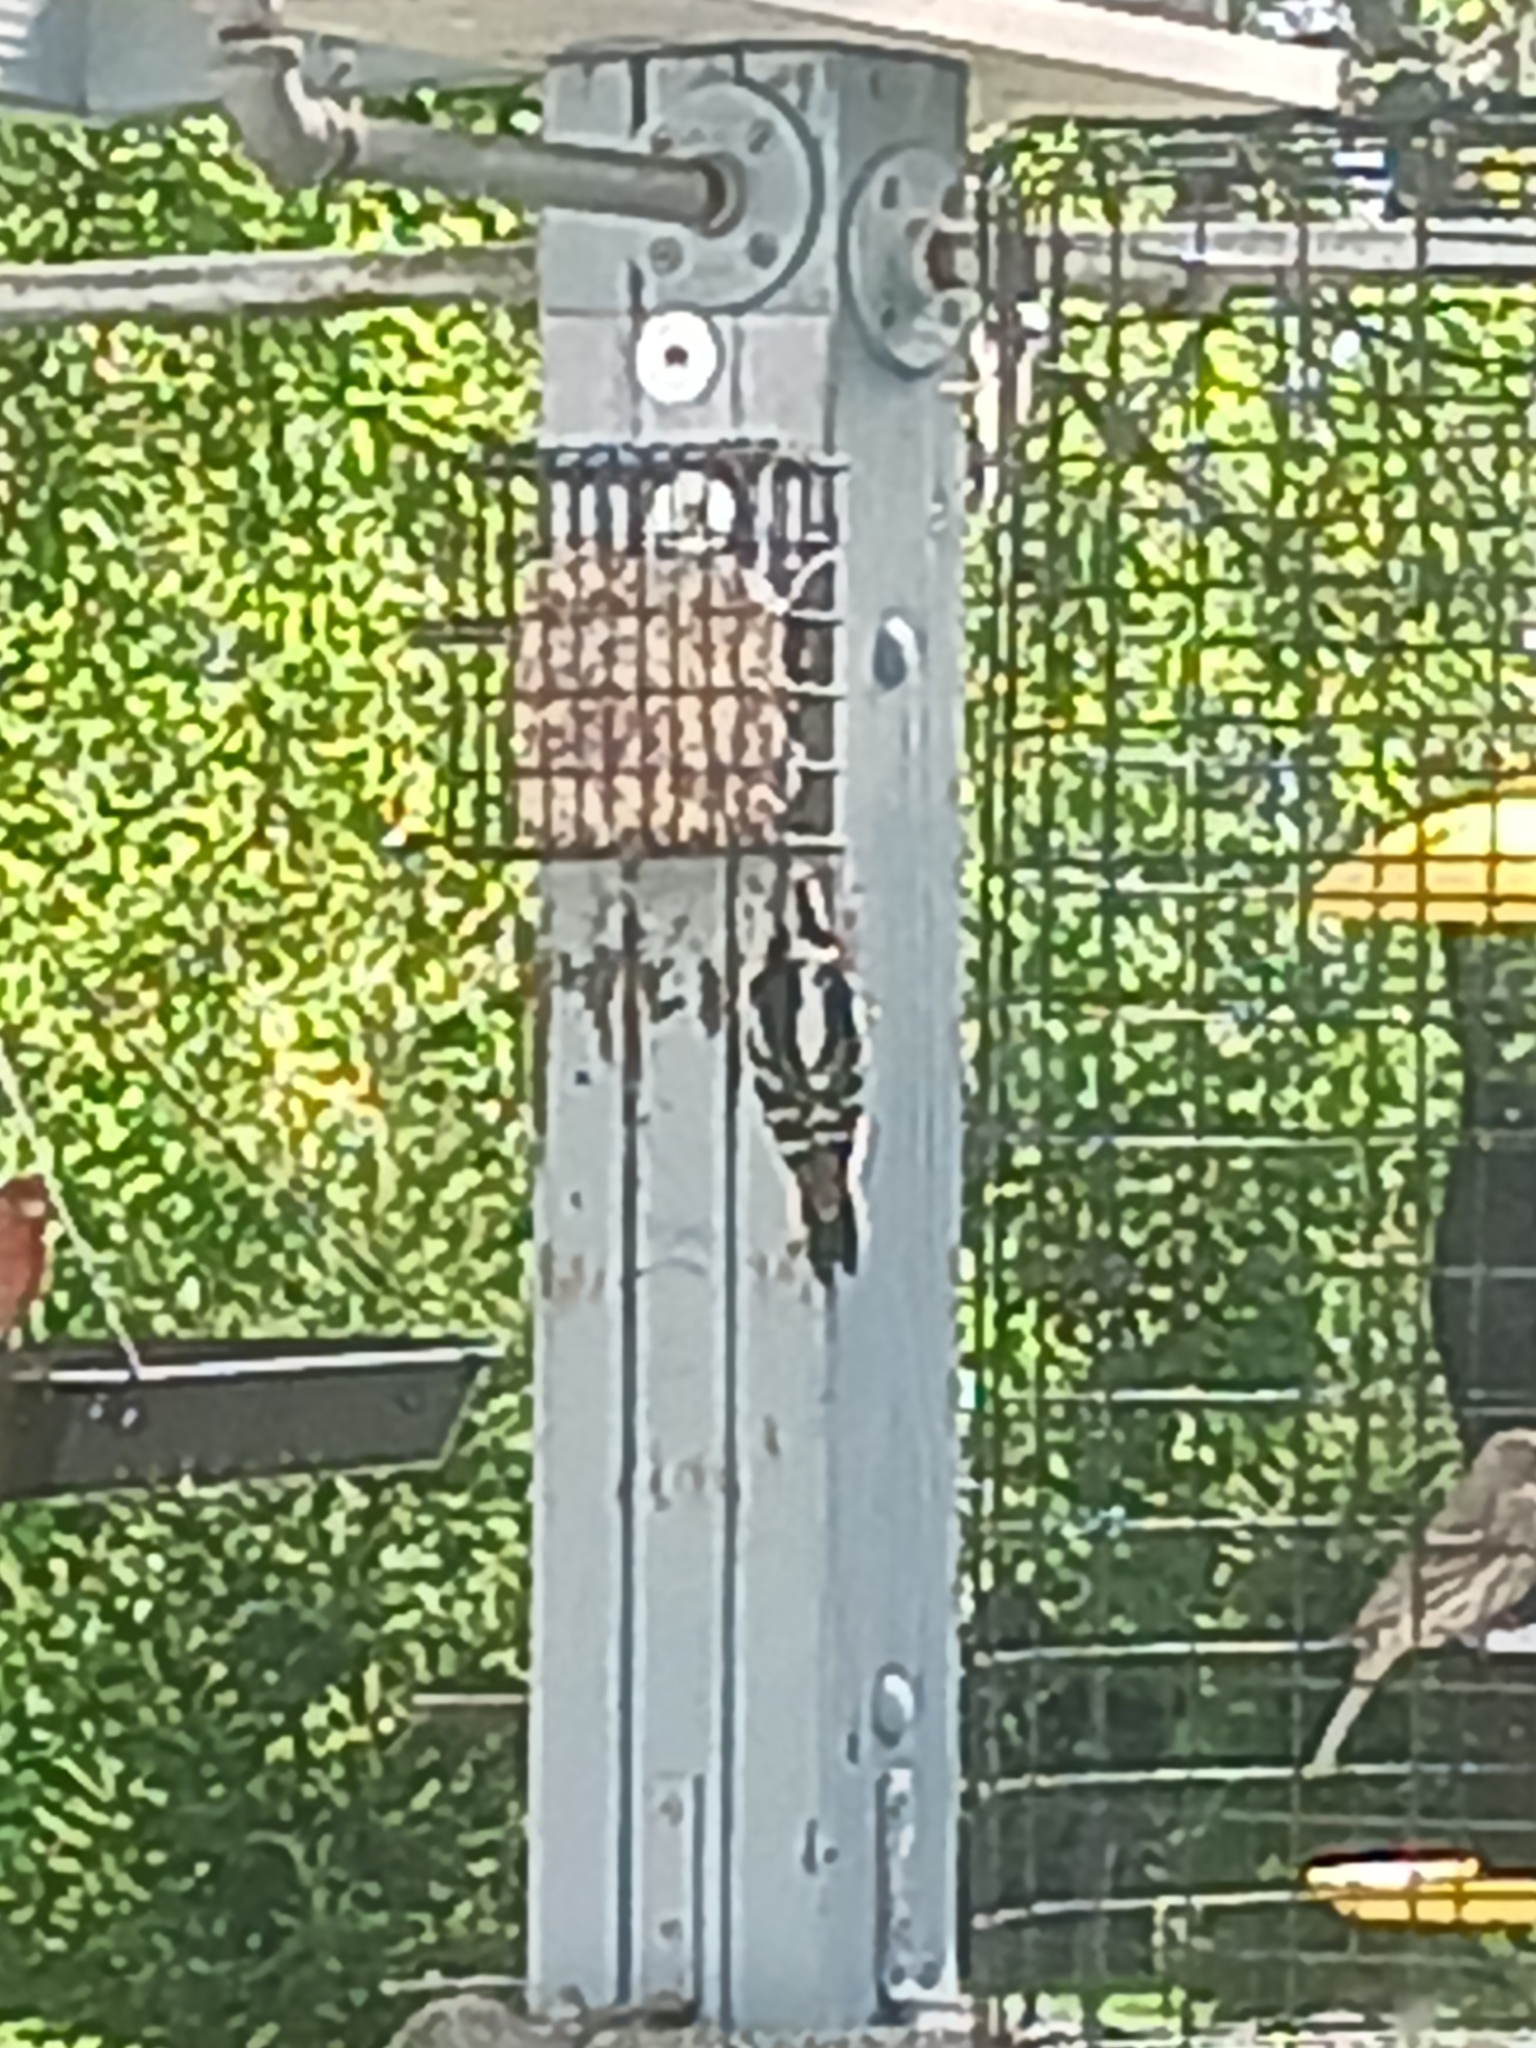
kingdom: Animalia
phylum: Chordata
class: Aves
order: Piciformes
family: Picidae
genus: Dryobates
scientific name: Dryobates pubescens
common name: Downy woodpecker
